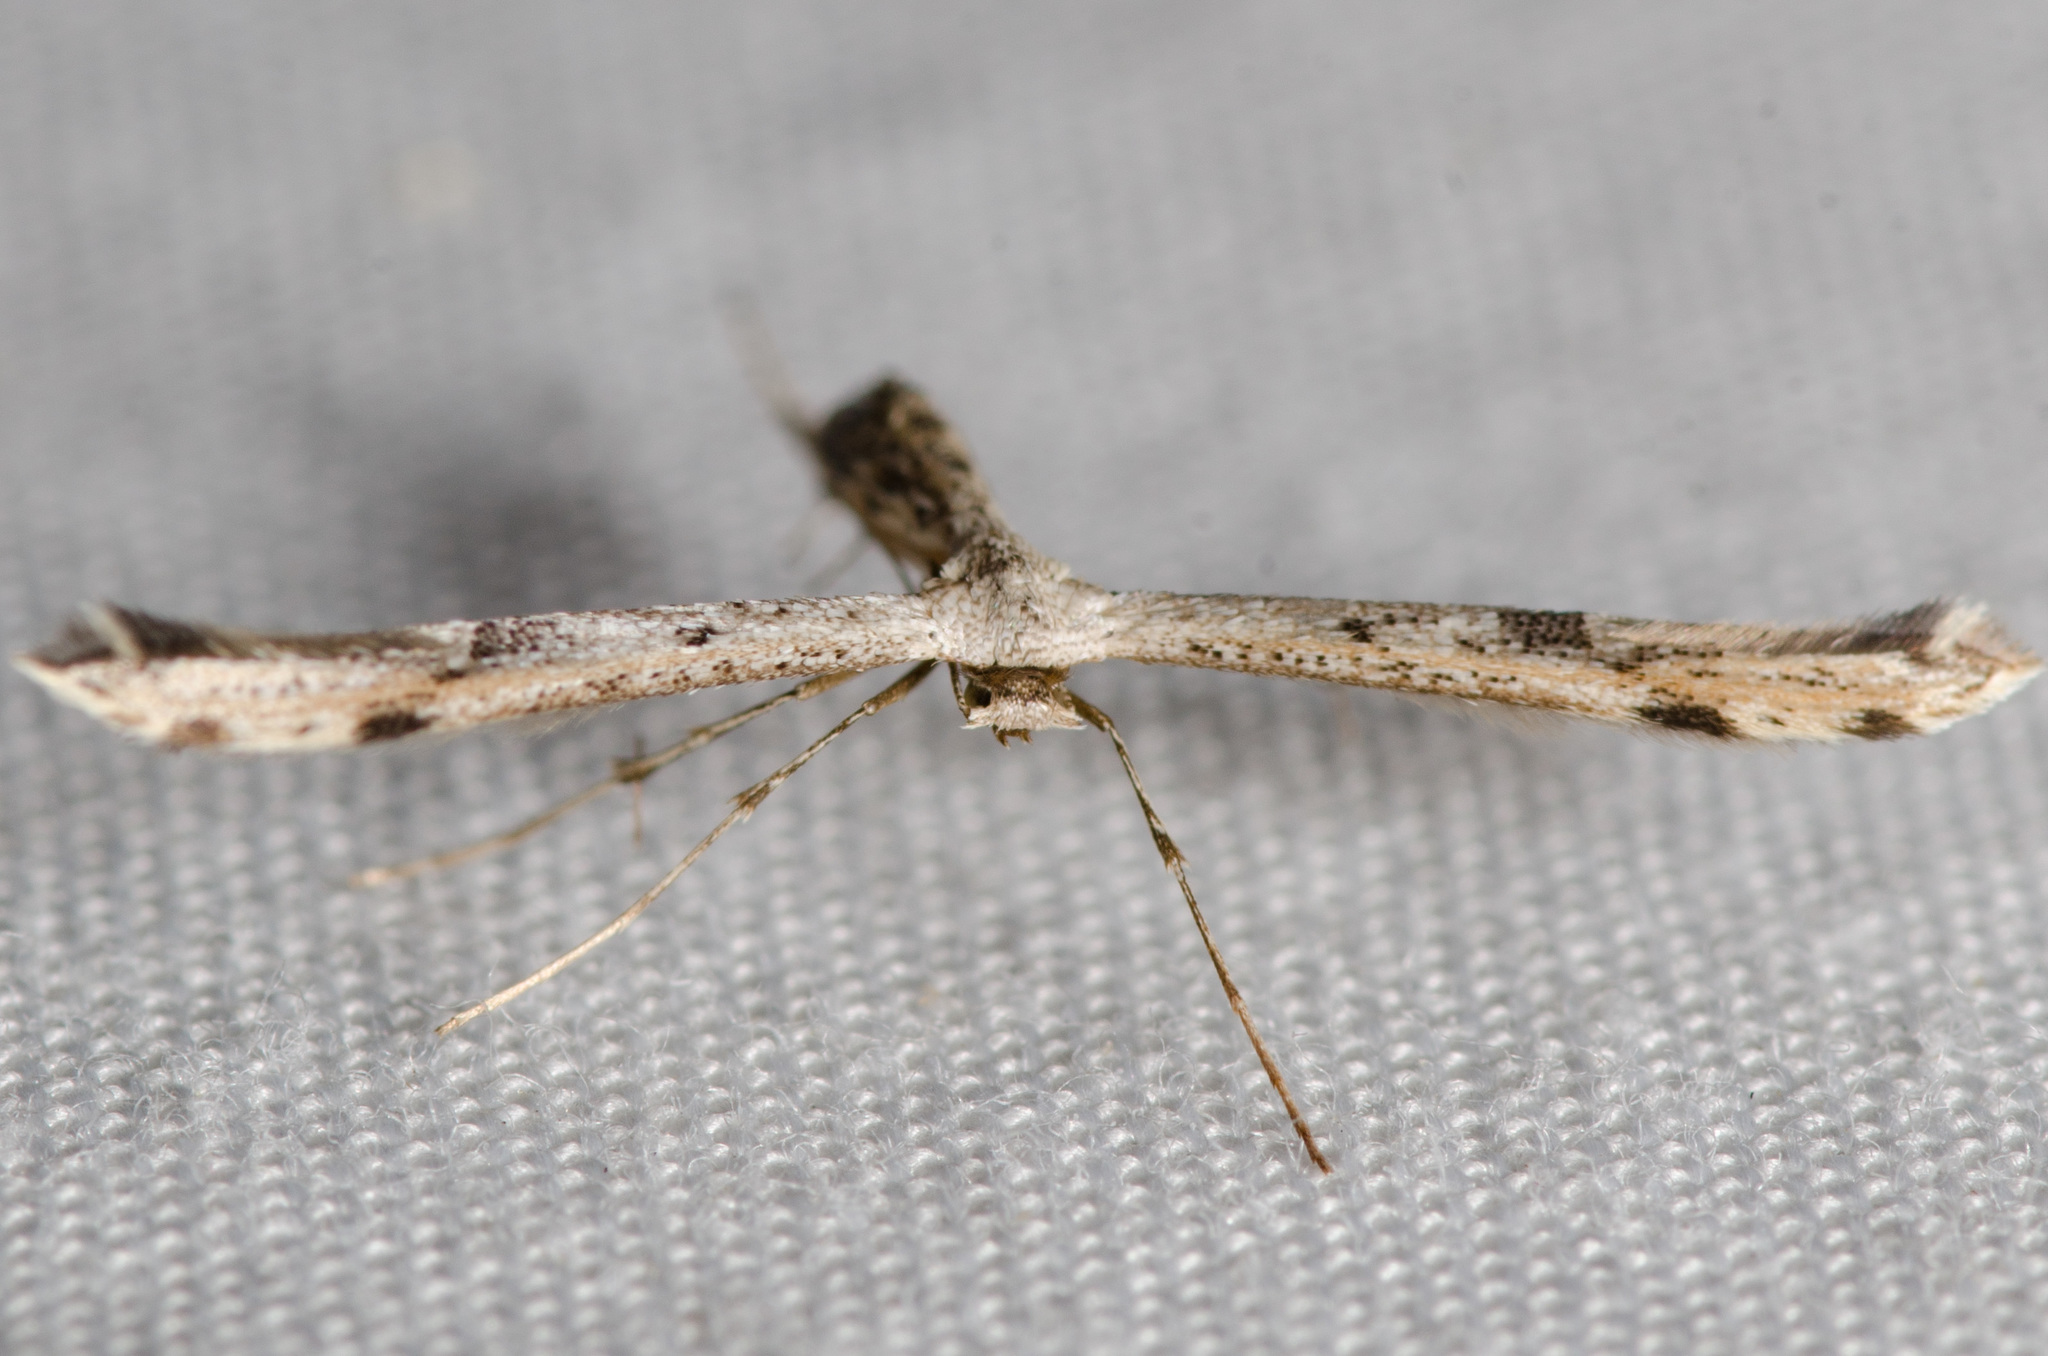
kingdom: Animalia
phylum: Arthropoda
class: Insecta
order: Lepidoptera
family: Pterophoridae
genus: Adaina
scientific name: Adaina ambrosiae
